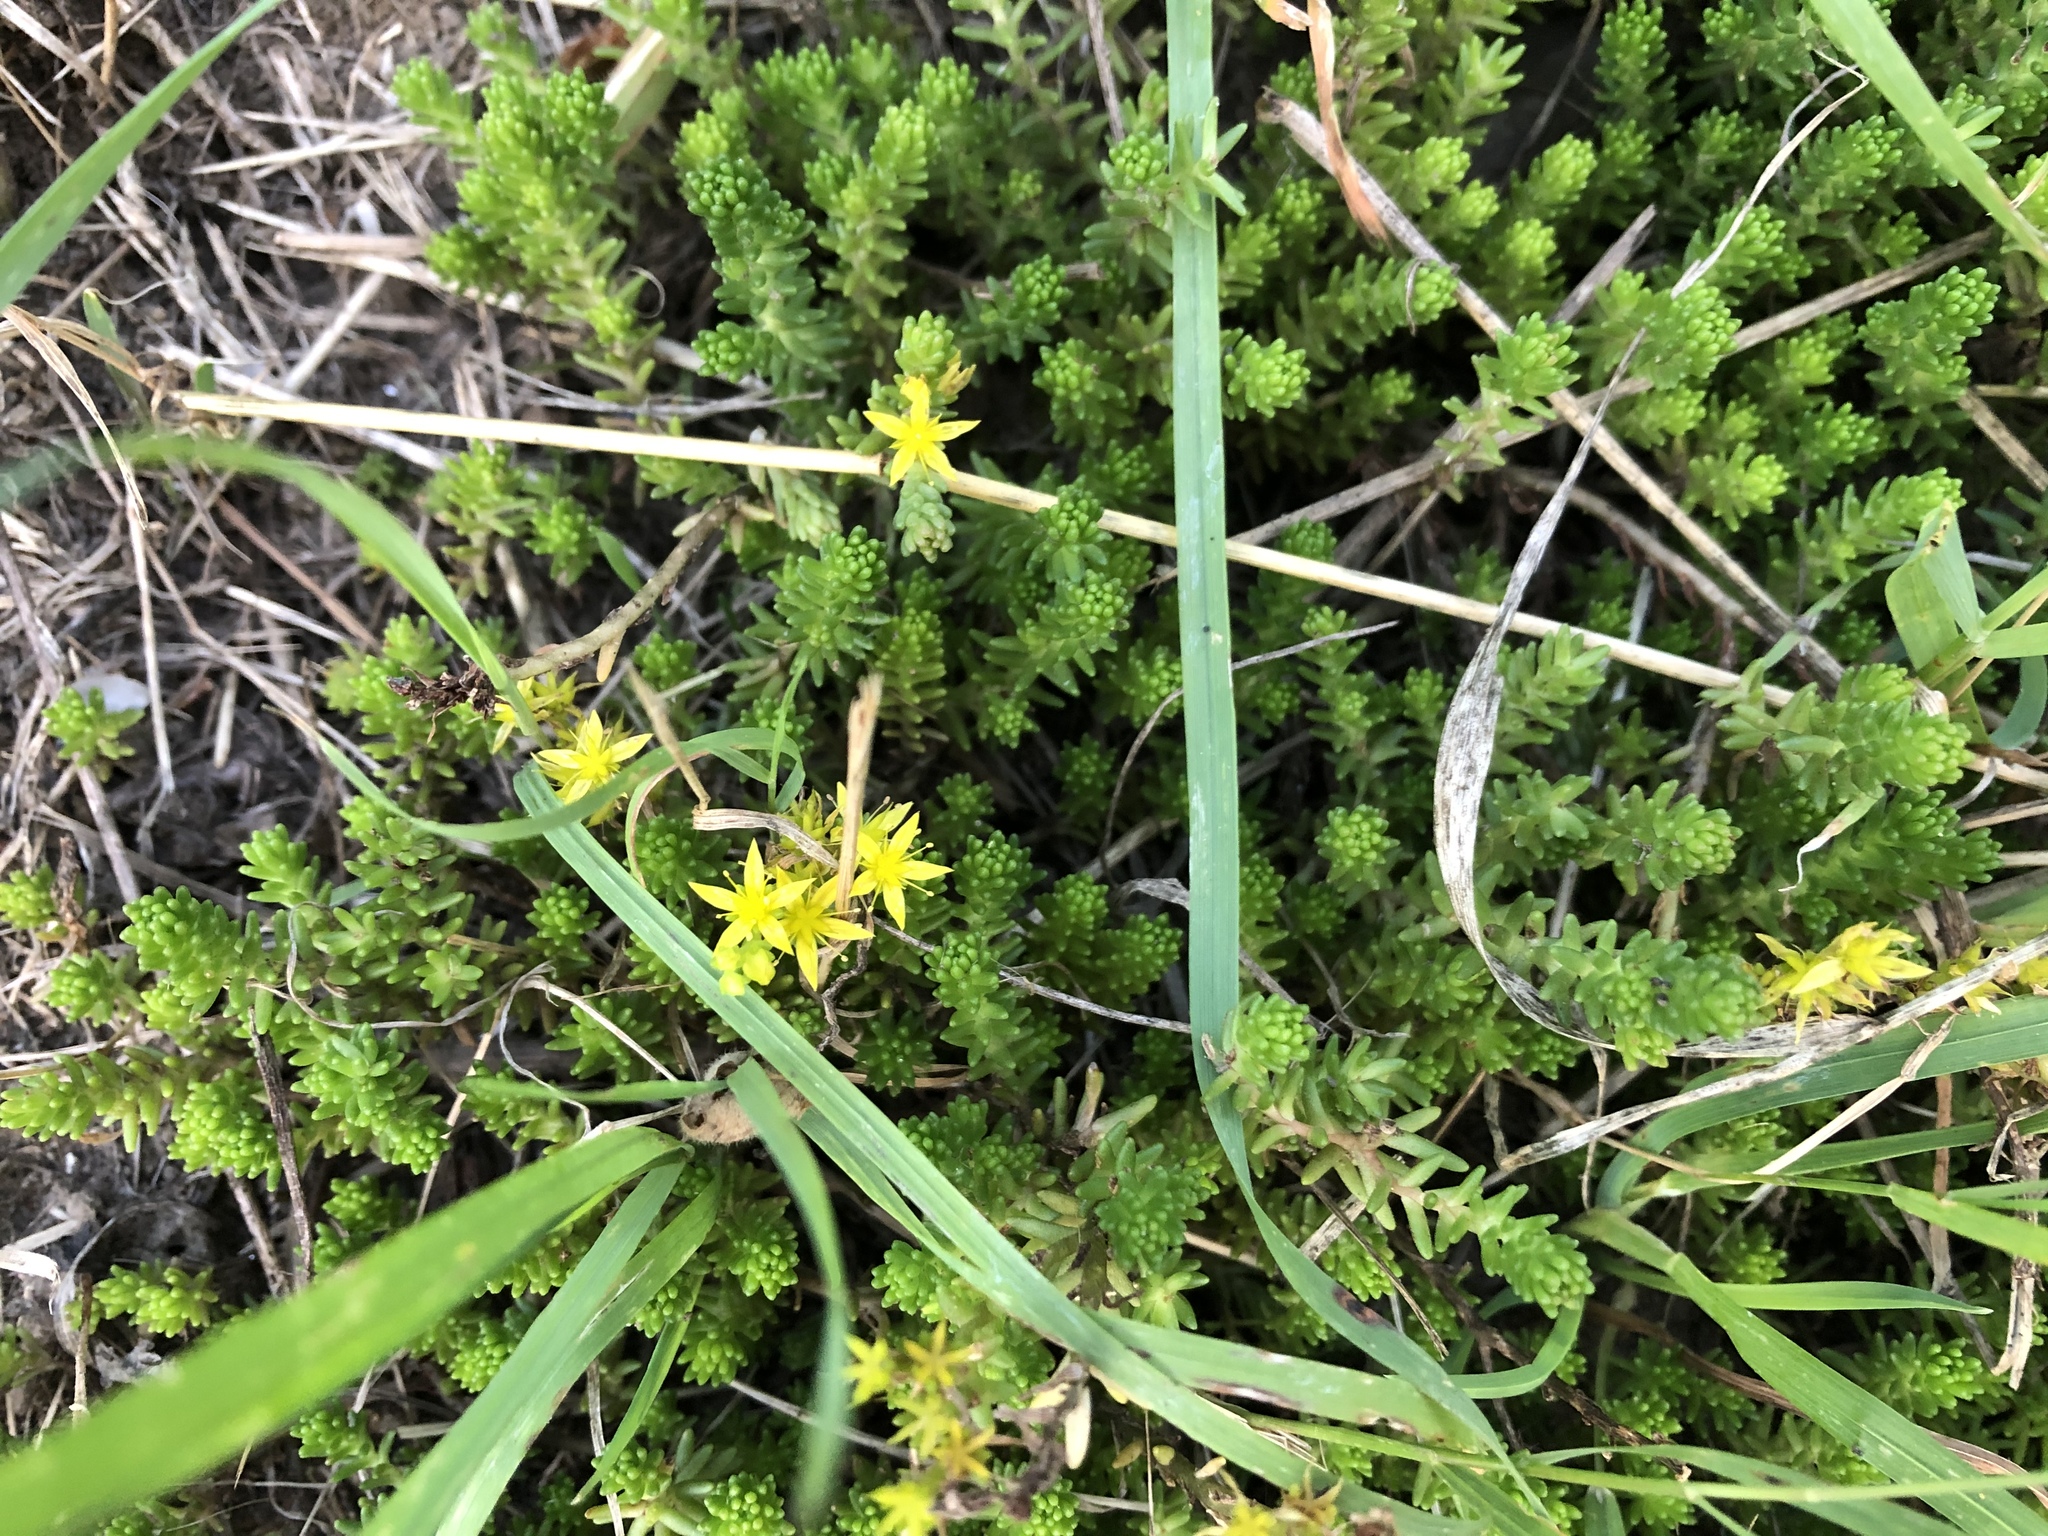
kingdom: Plantae
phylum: Tracheophyta
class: Magnoliopsida
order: Saxifragales
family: Crassulaceae
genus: Sedum
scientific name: Sedum sexangulare
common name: Tasteless stonecrop
